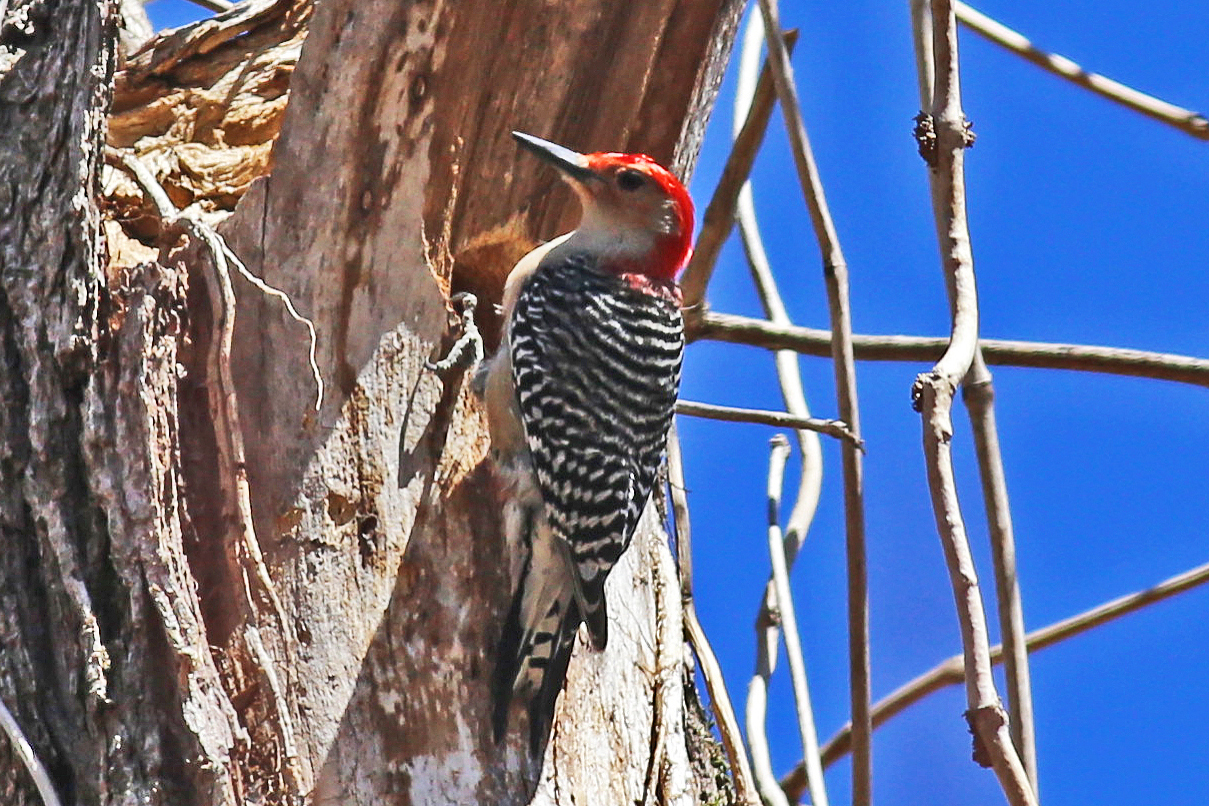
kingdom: Animalia
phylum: Chordata
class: Aves
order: Piciformes
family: Picidae
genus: Melanerpes
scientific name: Melanerpes carolinus
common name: Red-bellied woodpecker
